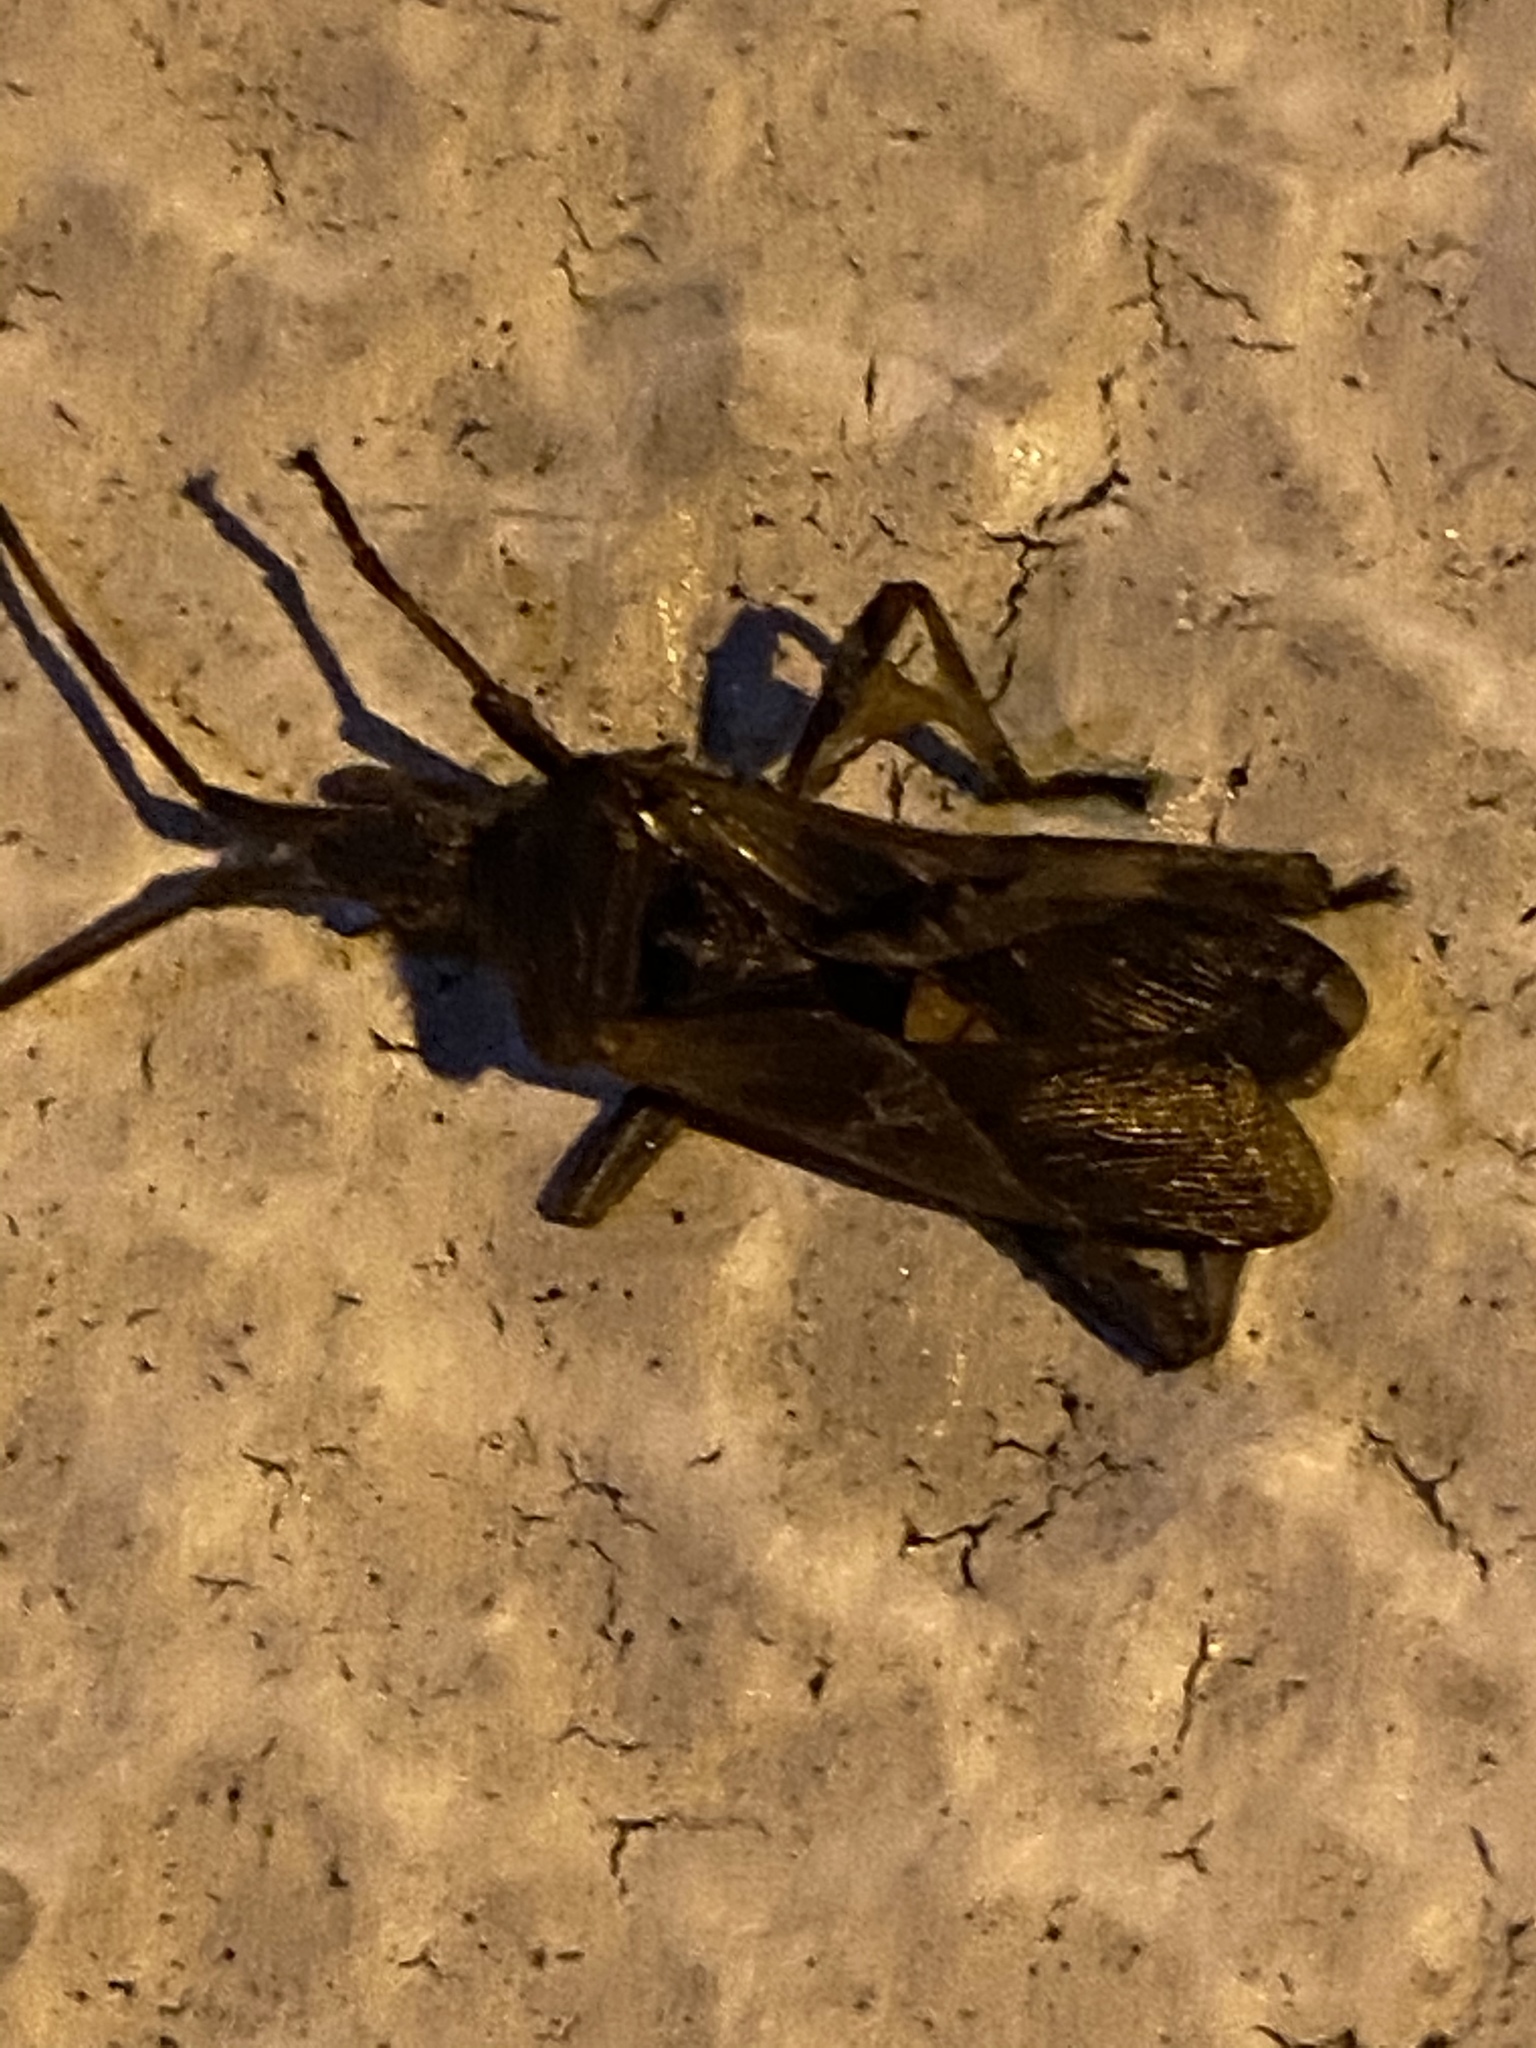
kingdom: Animalia
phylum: Arthropoda
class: Insecta
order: Hemiptera
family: Coreidae
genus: Leptoglossus
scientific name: Leptoglossus occidentalis
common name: Western conifer-seed bug
